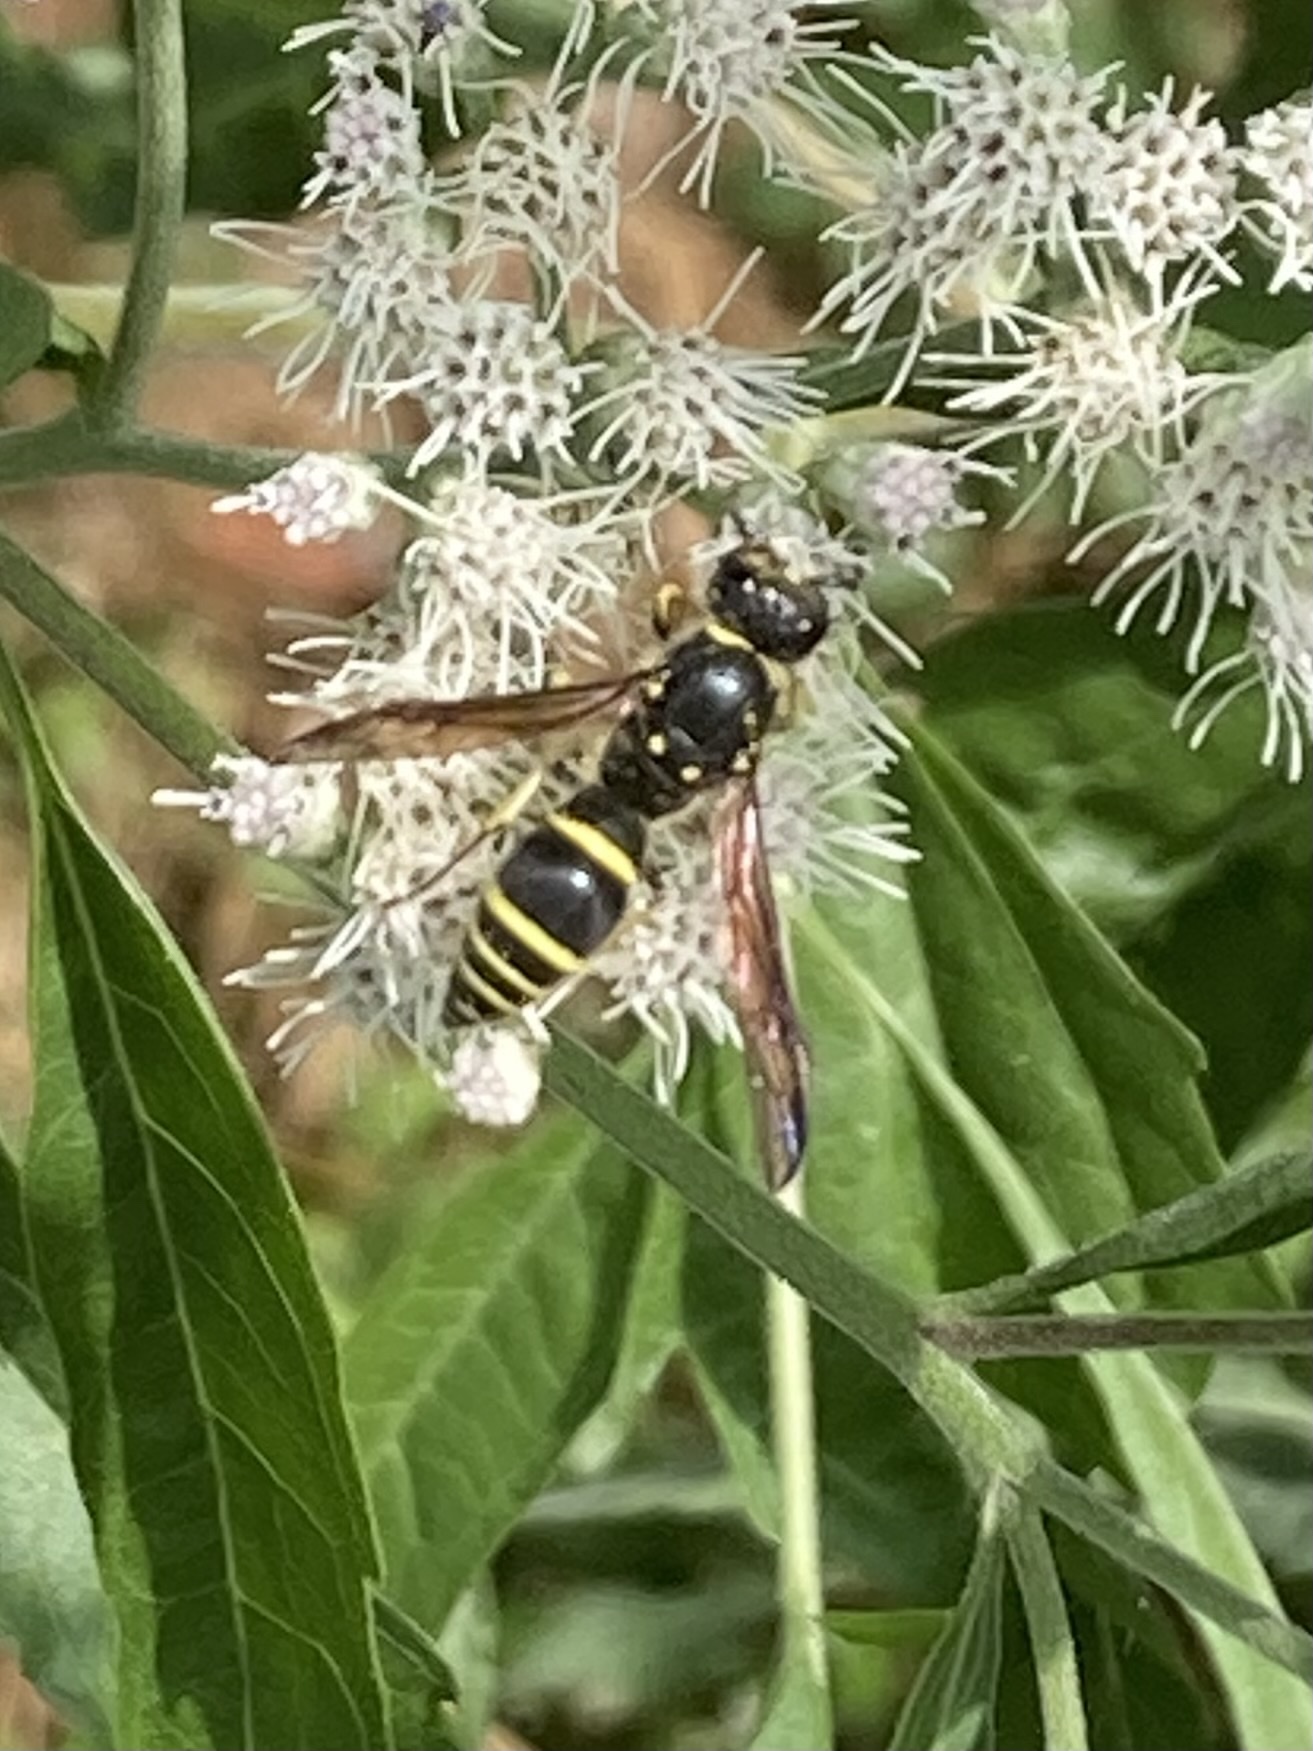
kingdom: Animalia
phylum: Arthropoda
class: Insecta
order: Hymenoptera
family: Vespidae
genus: Ancistrocerus
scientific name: Ancistrocerus
